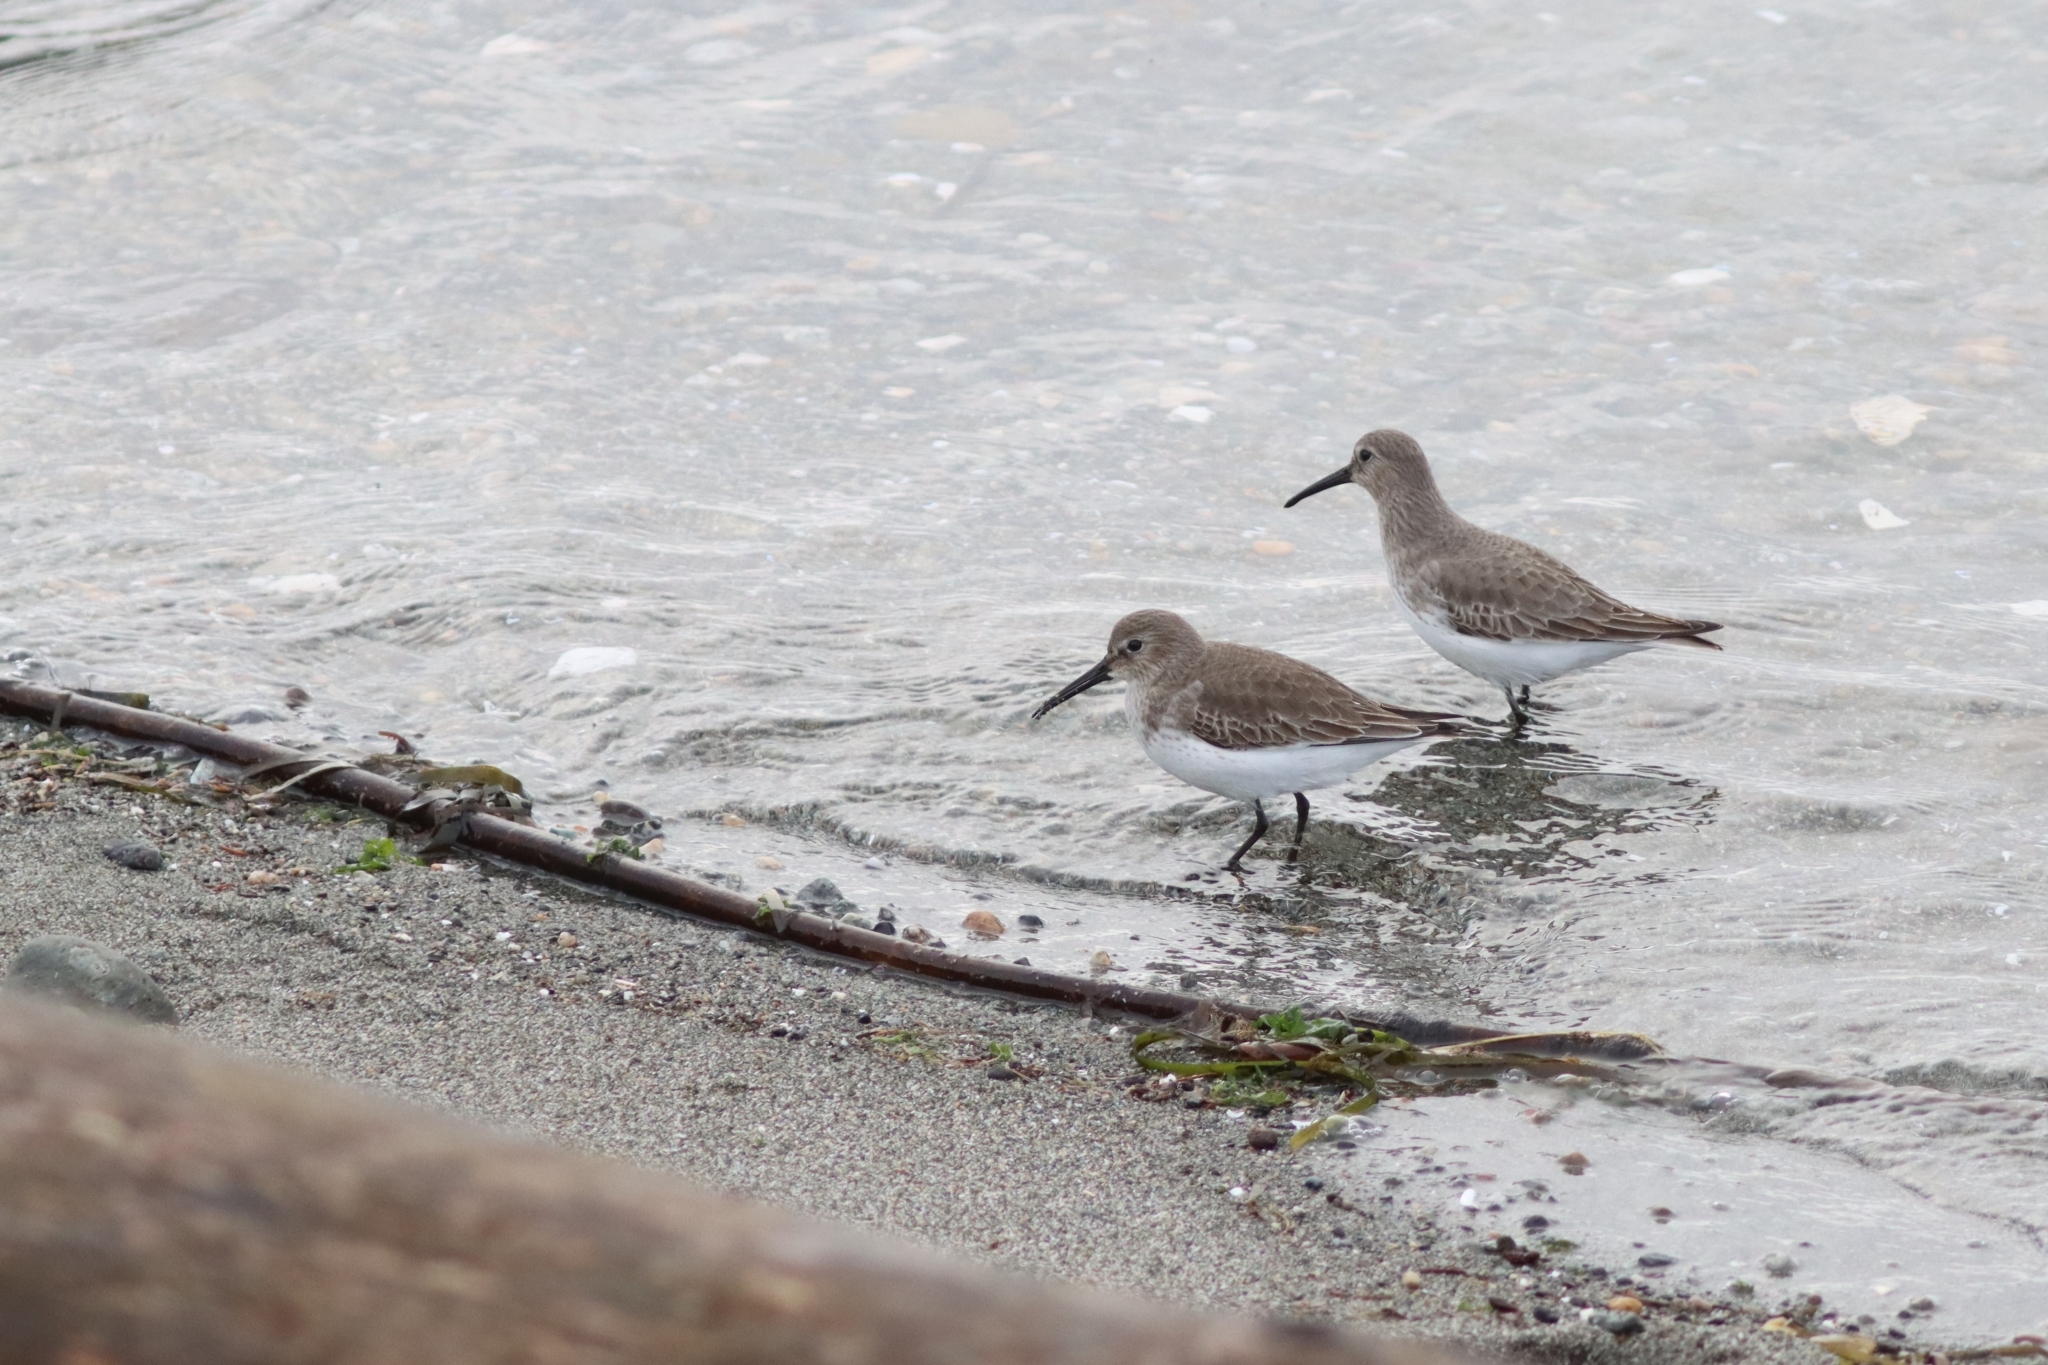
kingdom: Animalia
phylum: Chordata
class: Aves
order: Charadriiformes
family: Scolopacidae
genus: Calidris
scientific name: Calidris alpina
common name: Dunlin
